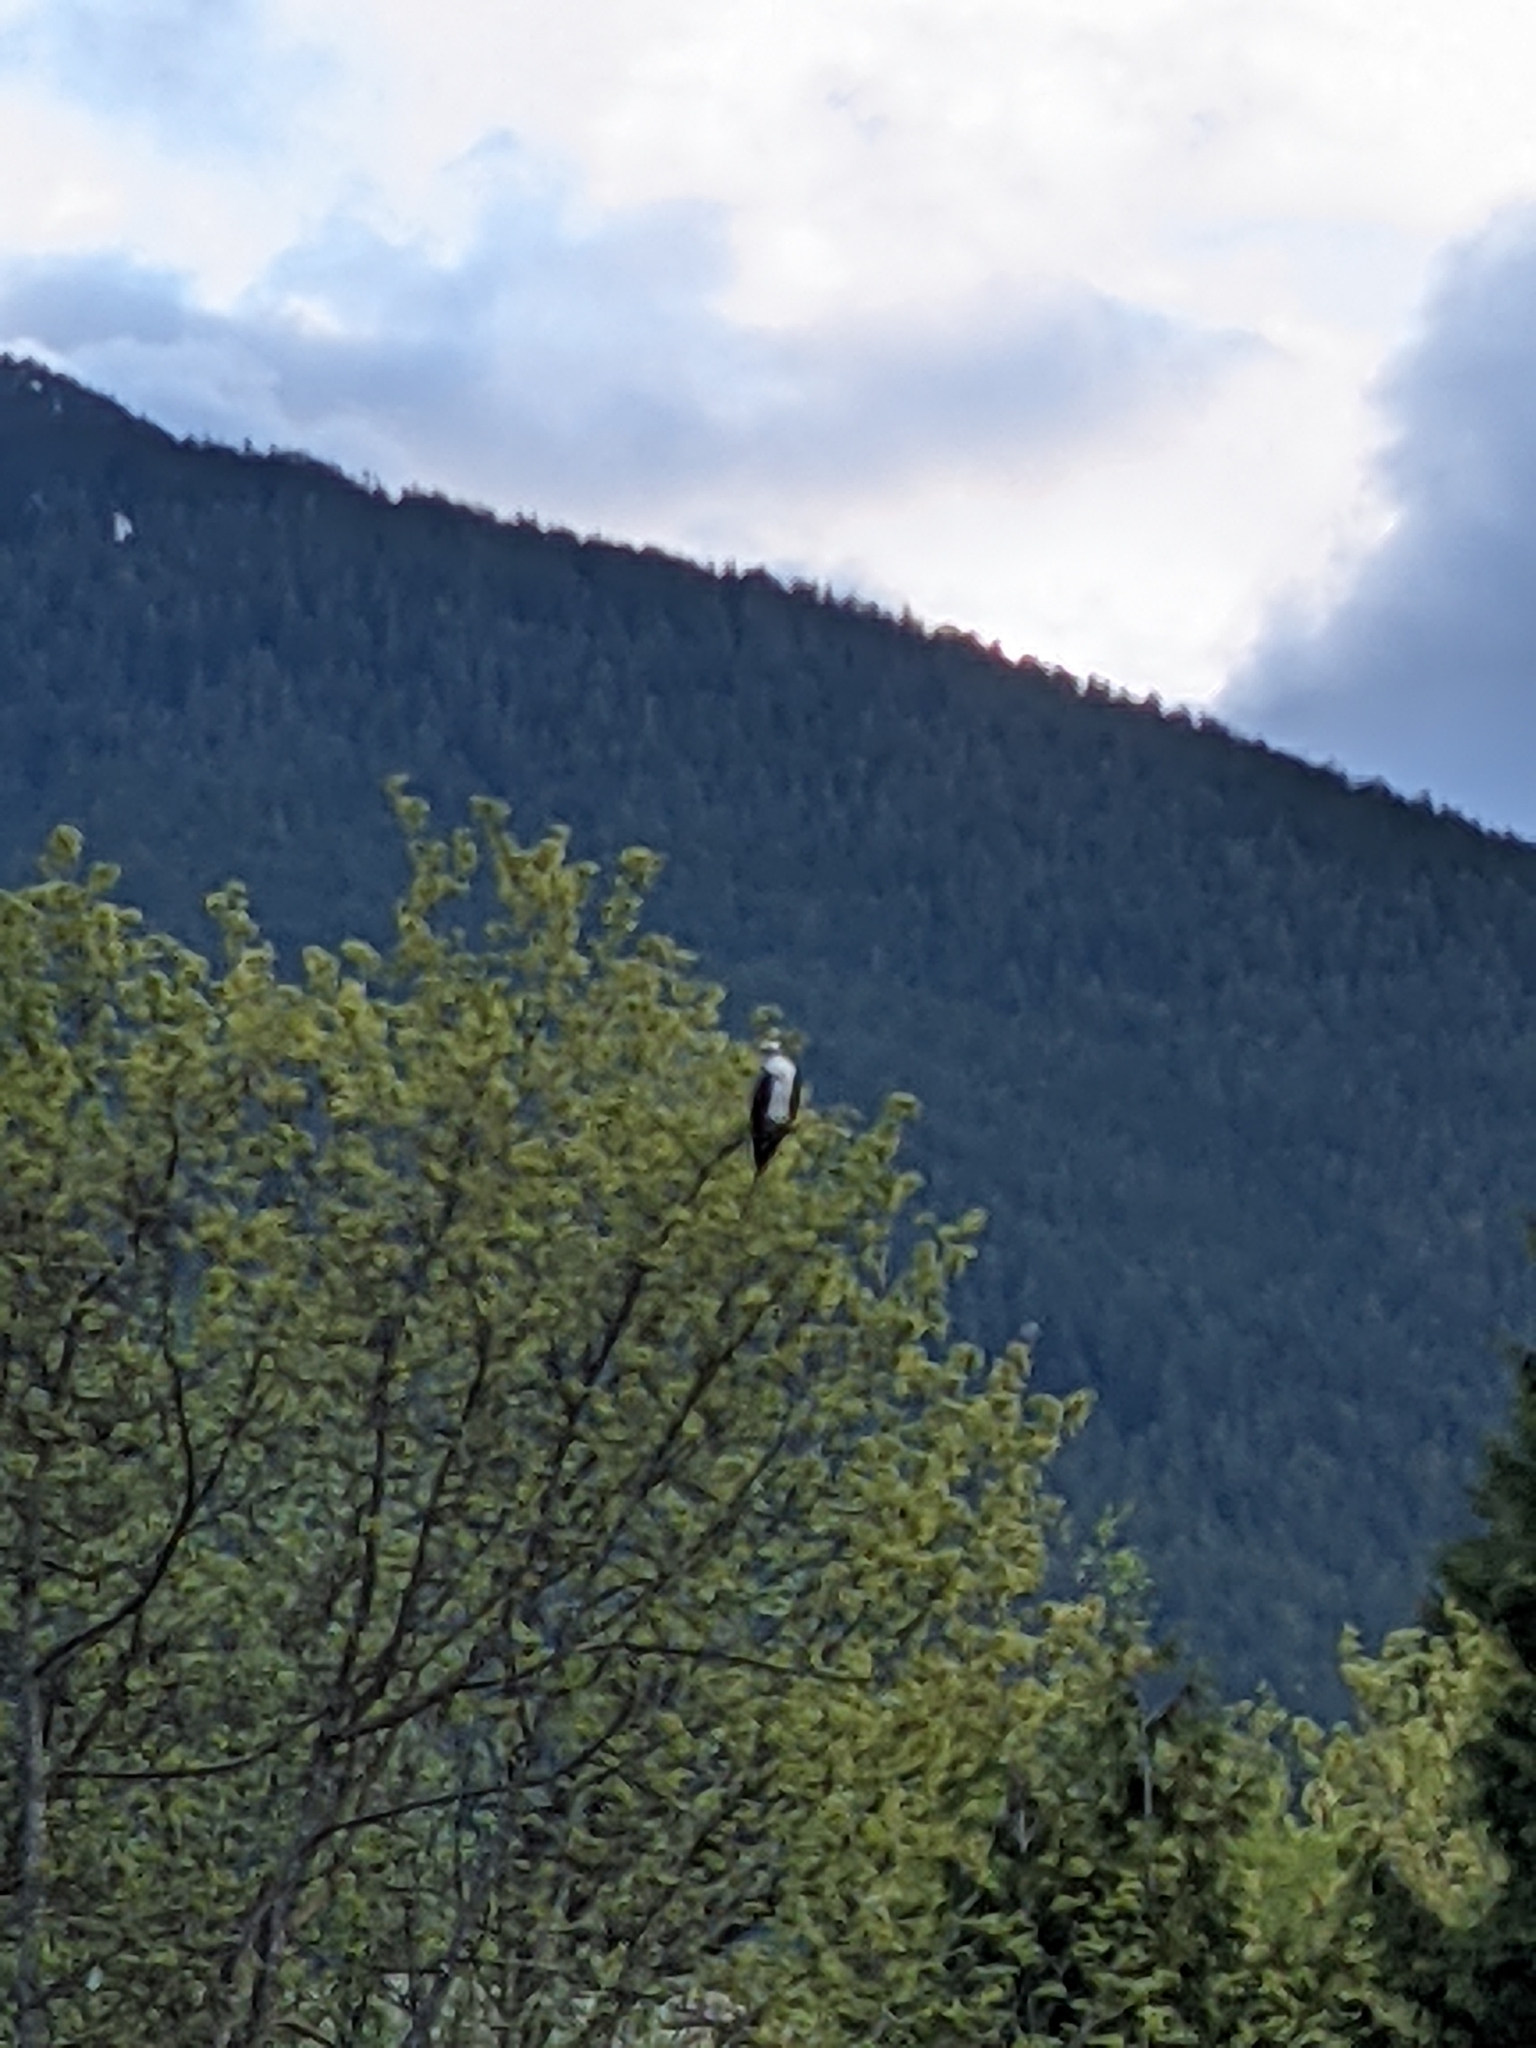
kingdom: Animalia
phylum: Chordata
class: Aves
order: Accipitriformes
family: Pandionidae
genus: Pandion
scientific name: Pandion haliaetus
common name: Osprey
